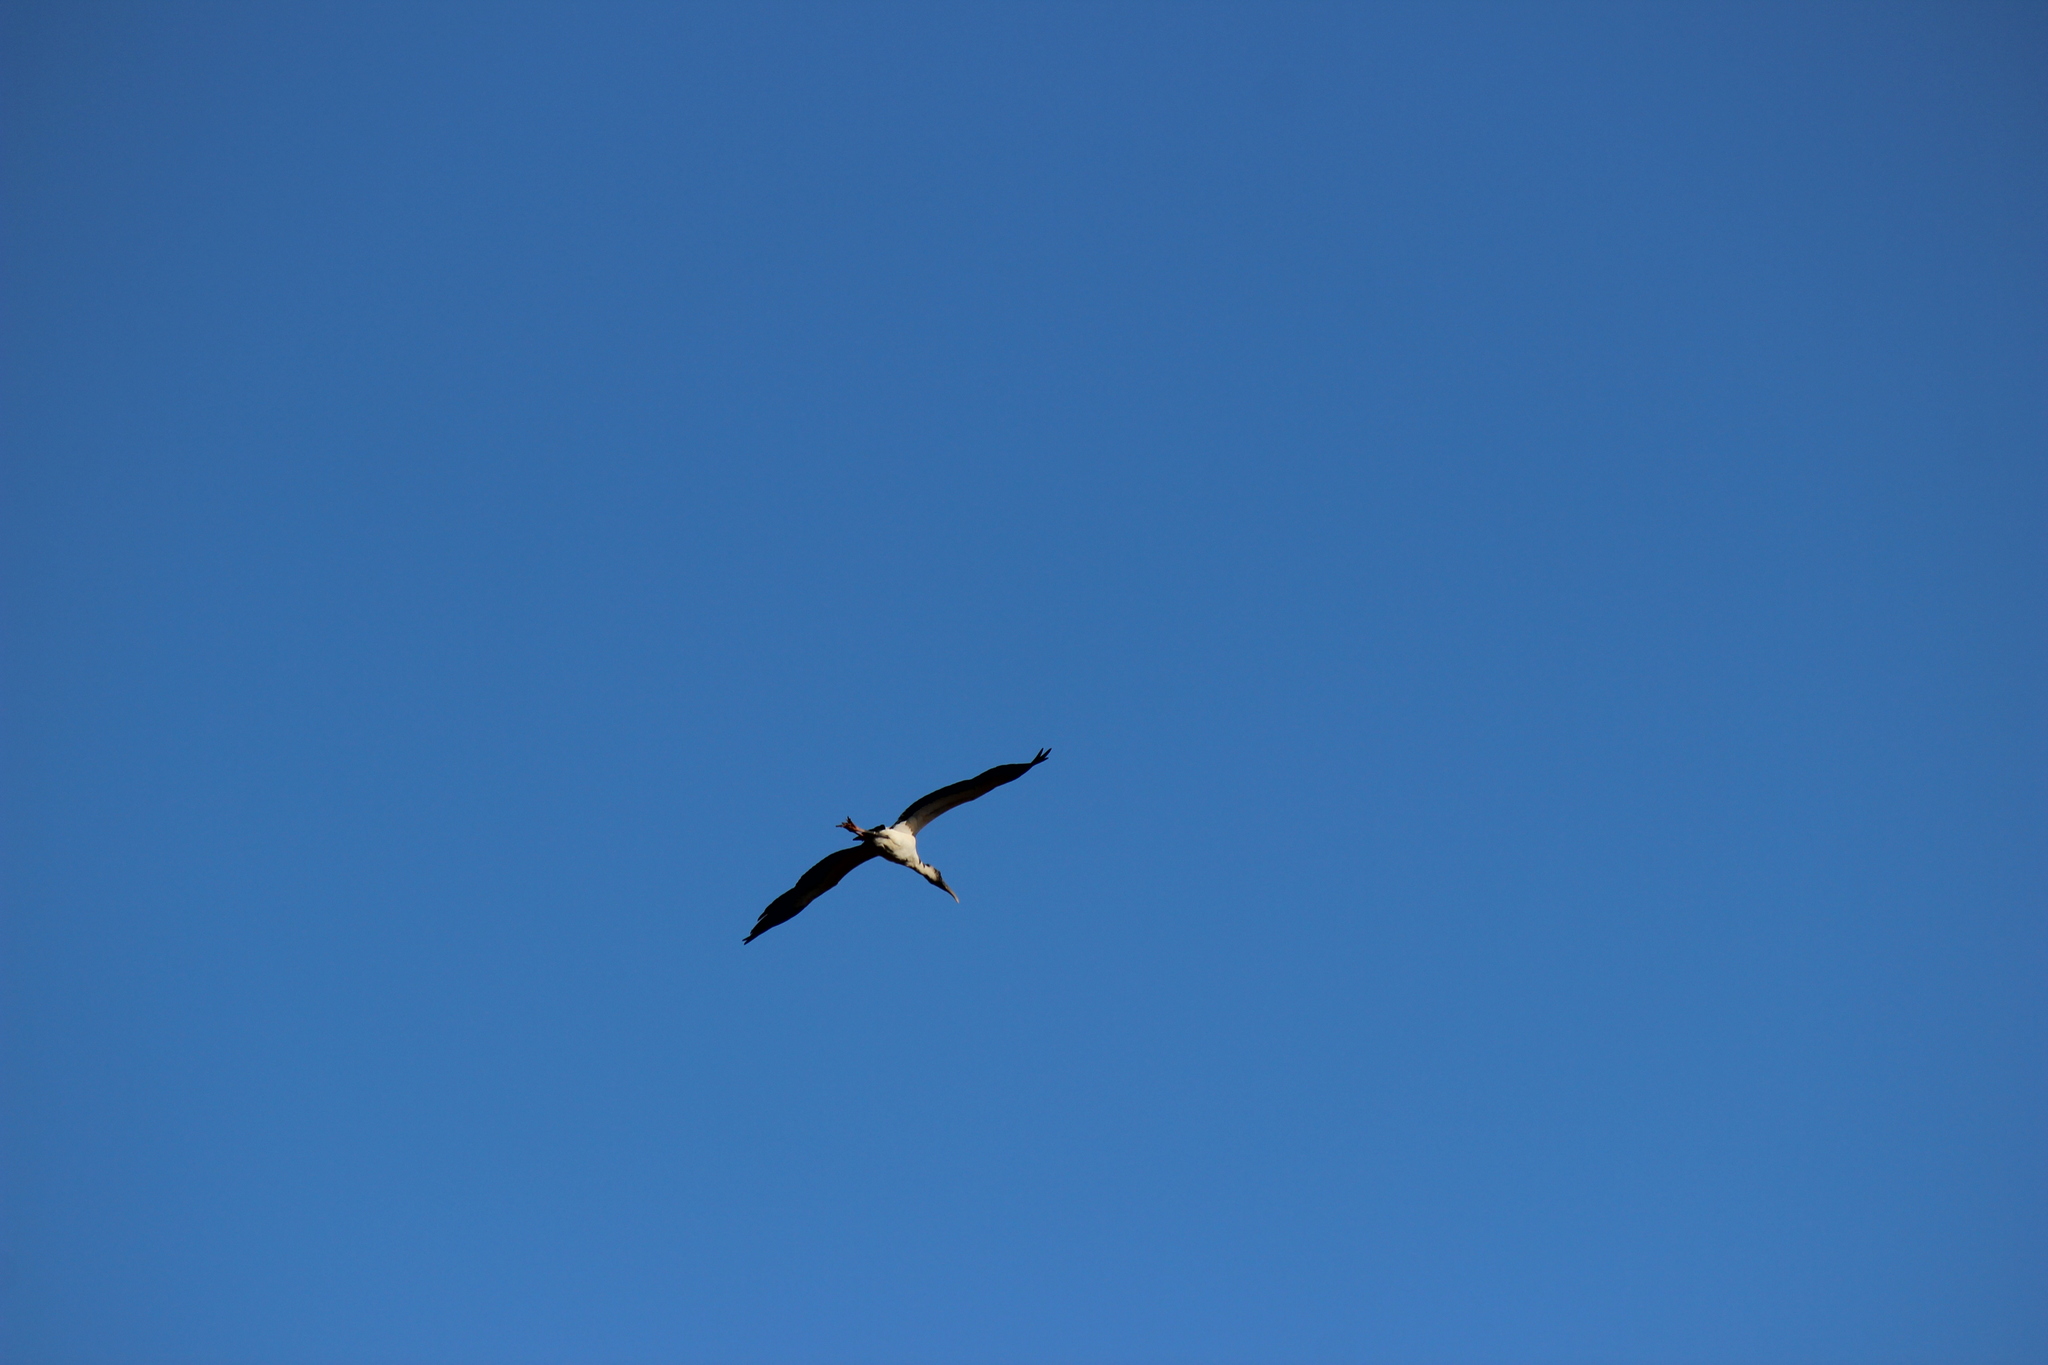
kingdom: Animalia
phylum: Chordata
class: Aves
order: Ciconiiformes
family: Ciconiidae
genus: Mycteria
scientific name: Mycteria americana
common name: Wood stork
